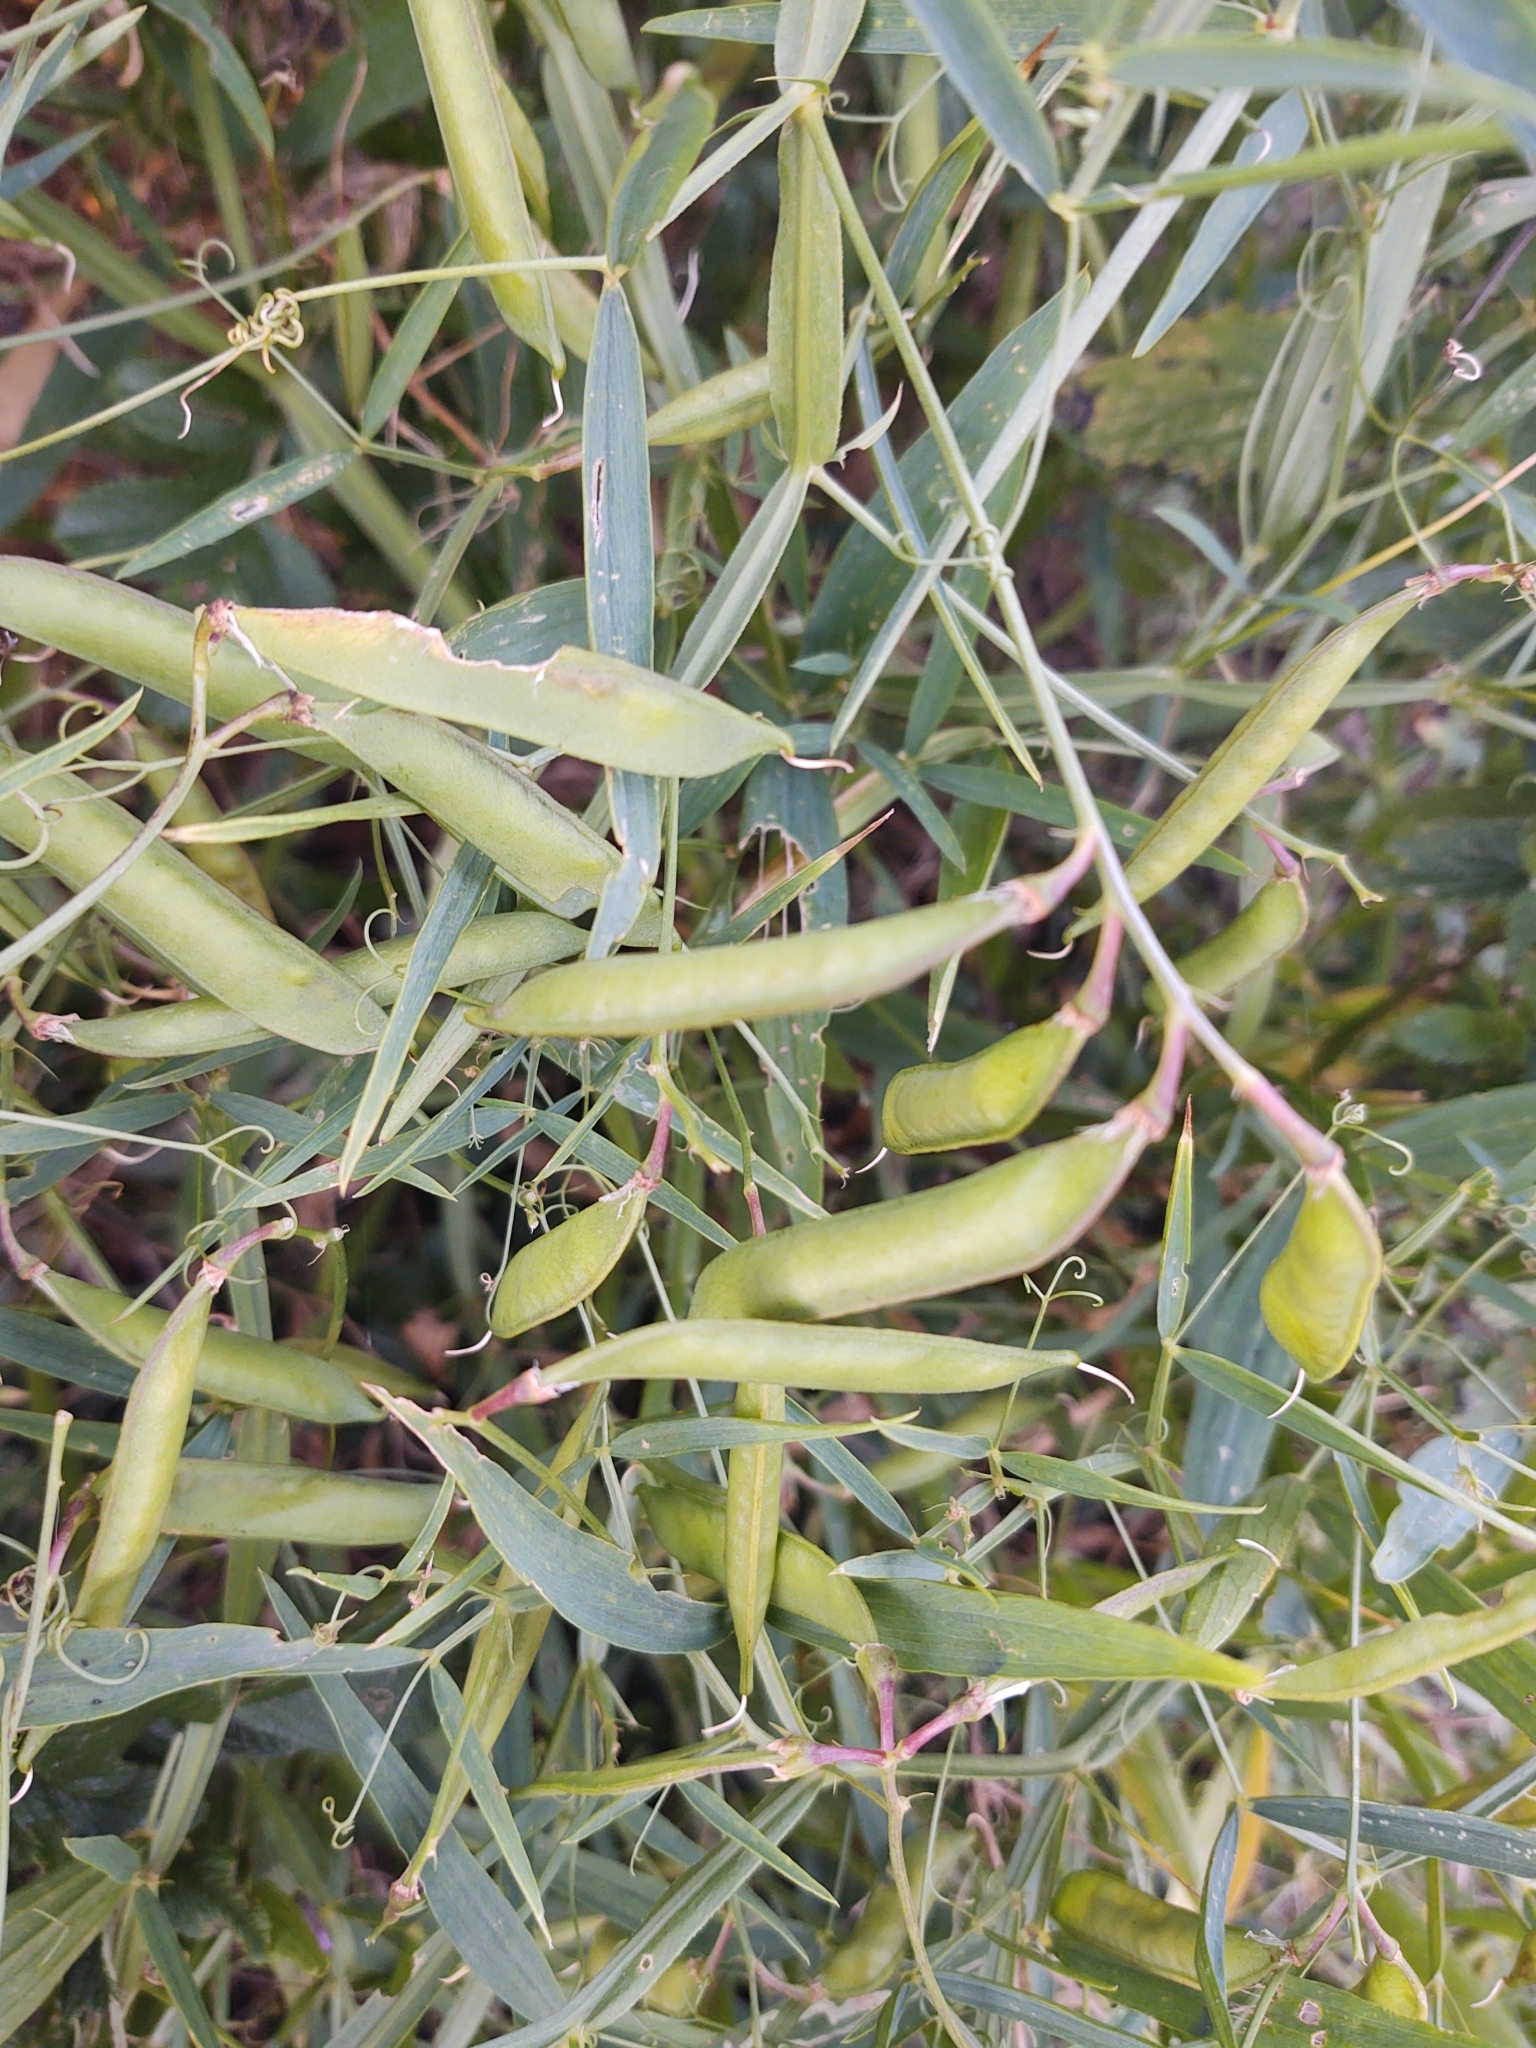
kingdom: Plantae
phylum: Tracheophyta
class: Magnoliopsida
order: Fabales
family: Fabaceae
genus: Lathyrus
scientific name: Lathyrus sylvestris
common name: Flat pea
